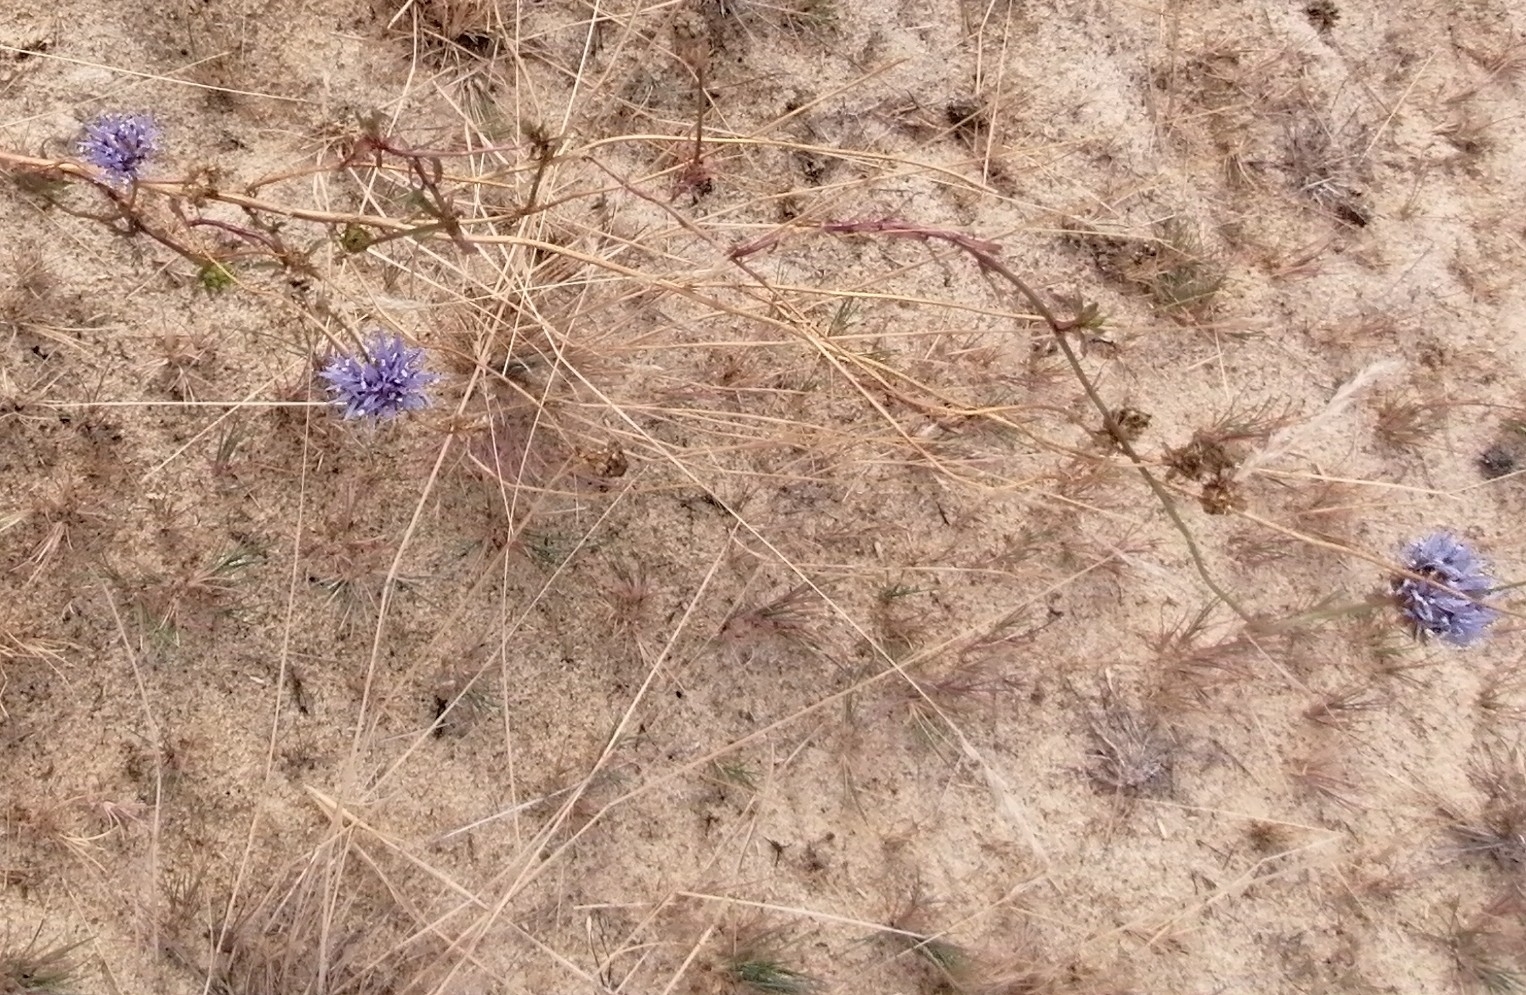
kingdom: Plantae
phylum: Tracheophyta
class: Magnoliopsida
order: Asterales
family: Campanulaceae
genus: Jasione
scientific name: Jasione montana
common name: Sheep's-bit
